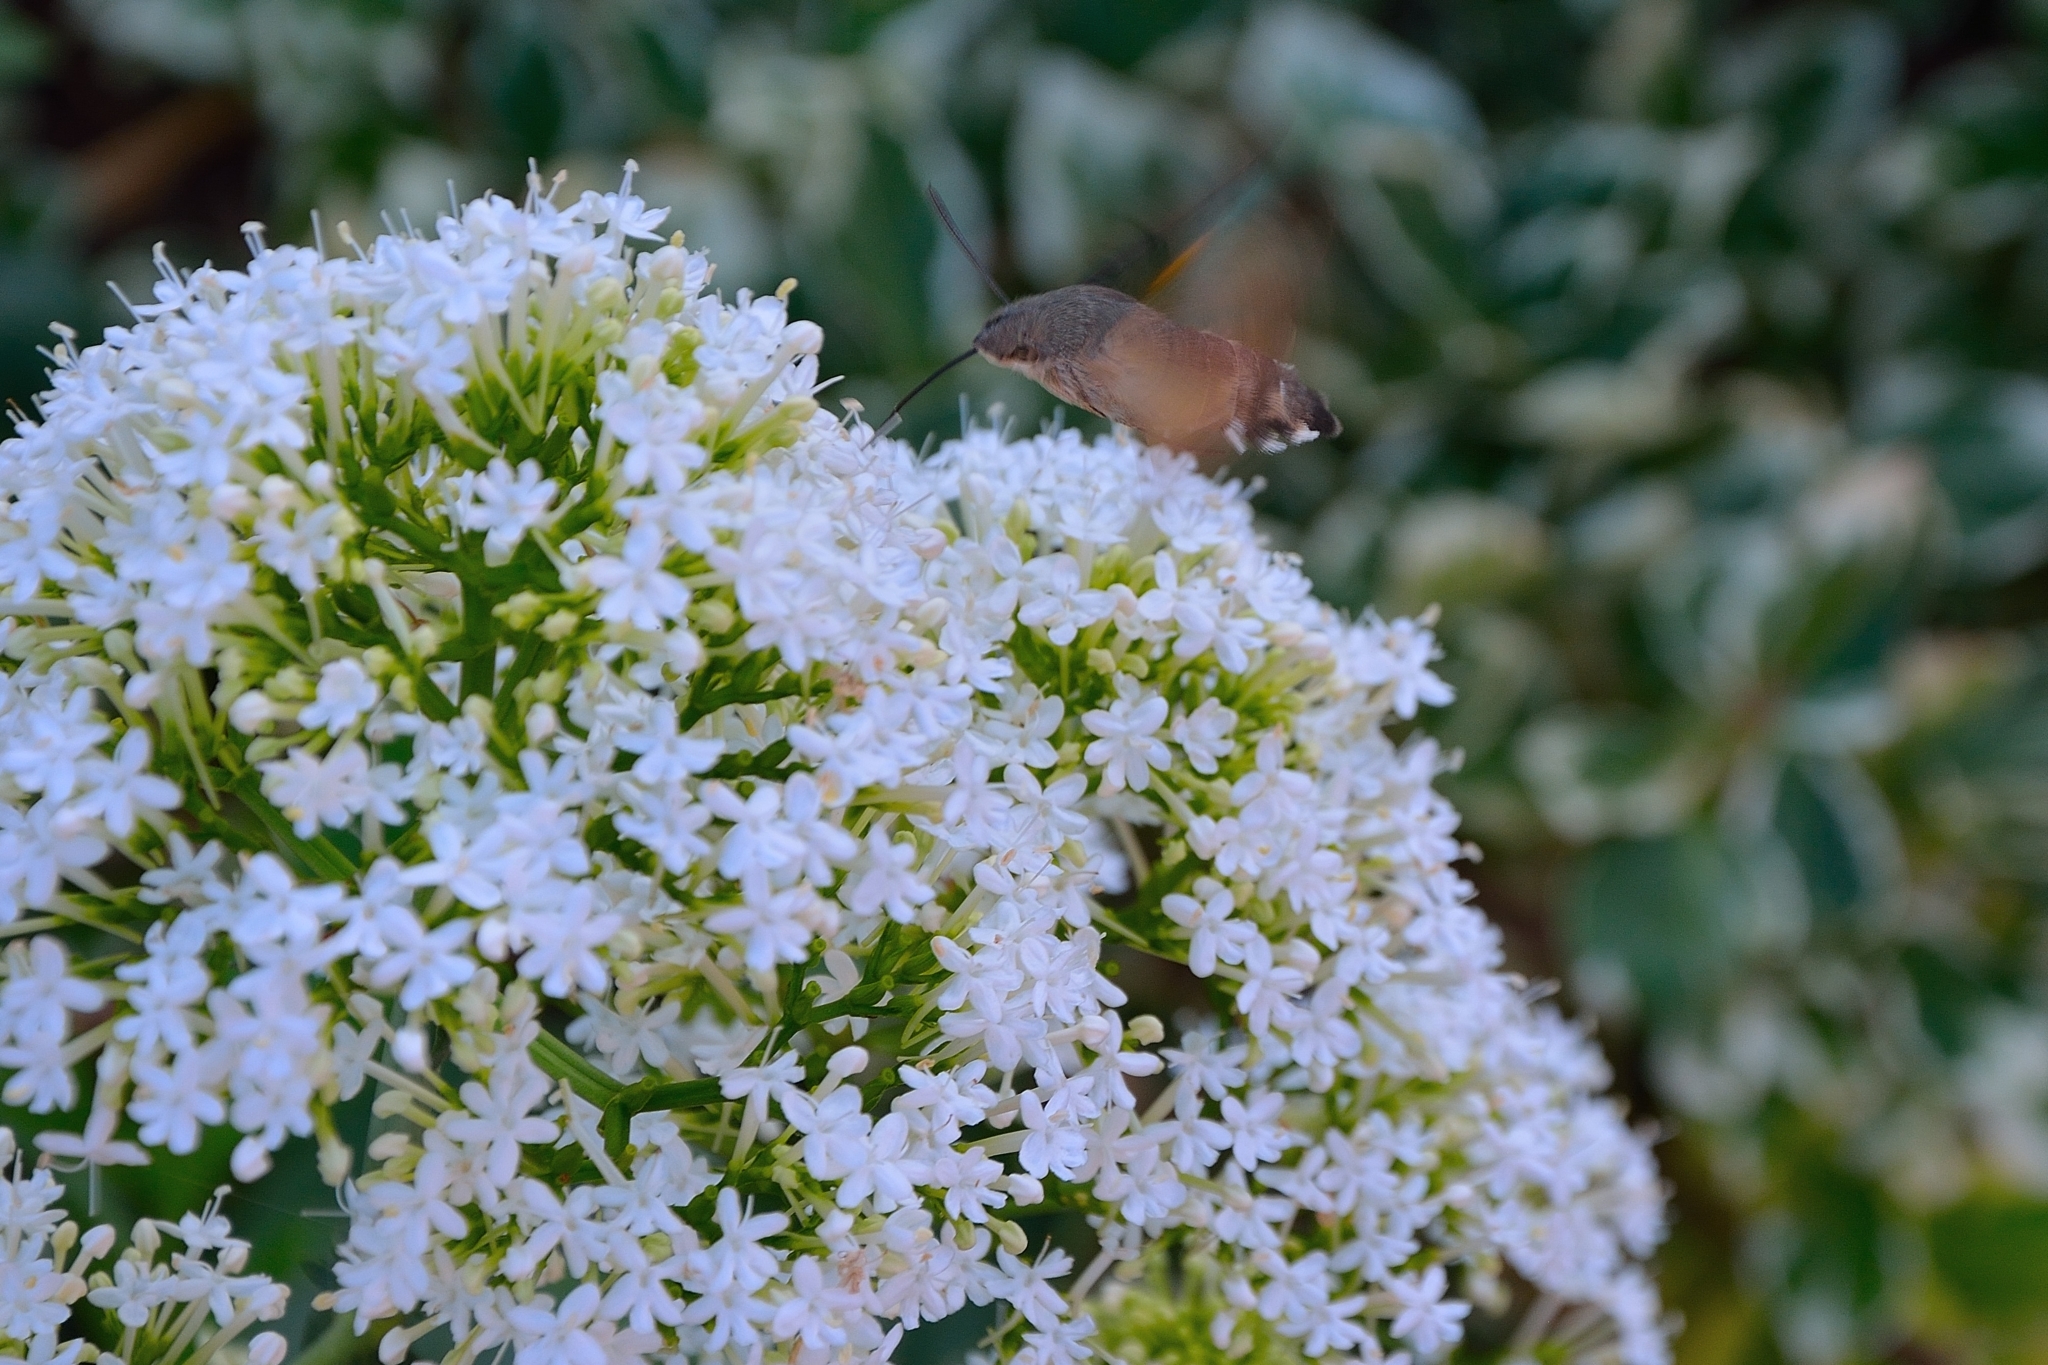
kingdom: Animalia
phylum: Arthropoda
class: Insecta
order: Lepidoptera
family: Sphingidae
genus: Macroglossum
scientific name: Macroglossum stellatarum
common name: Humming-bird hawk-moth
